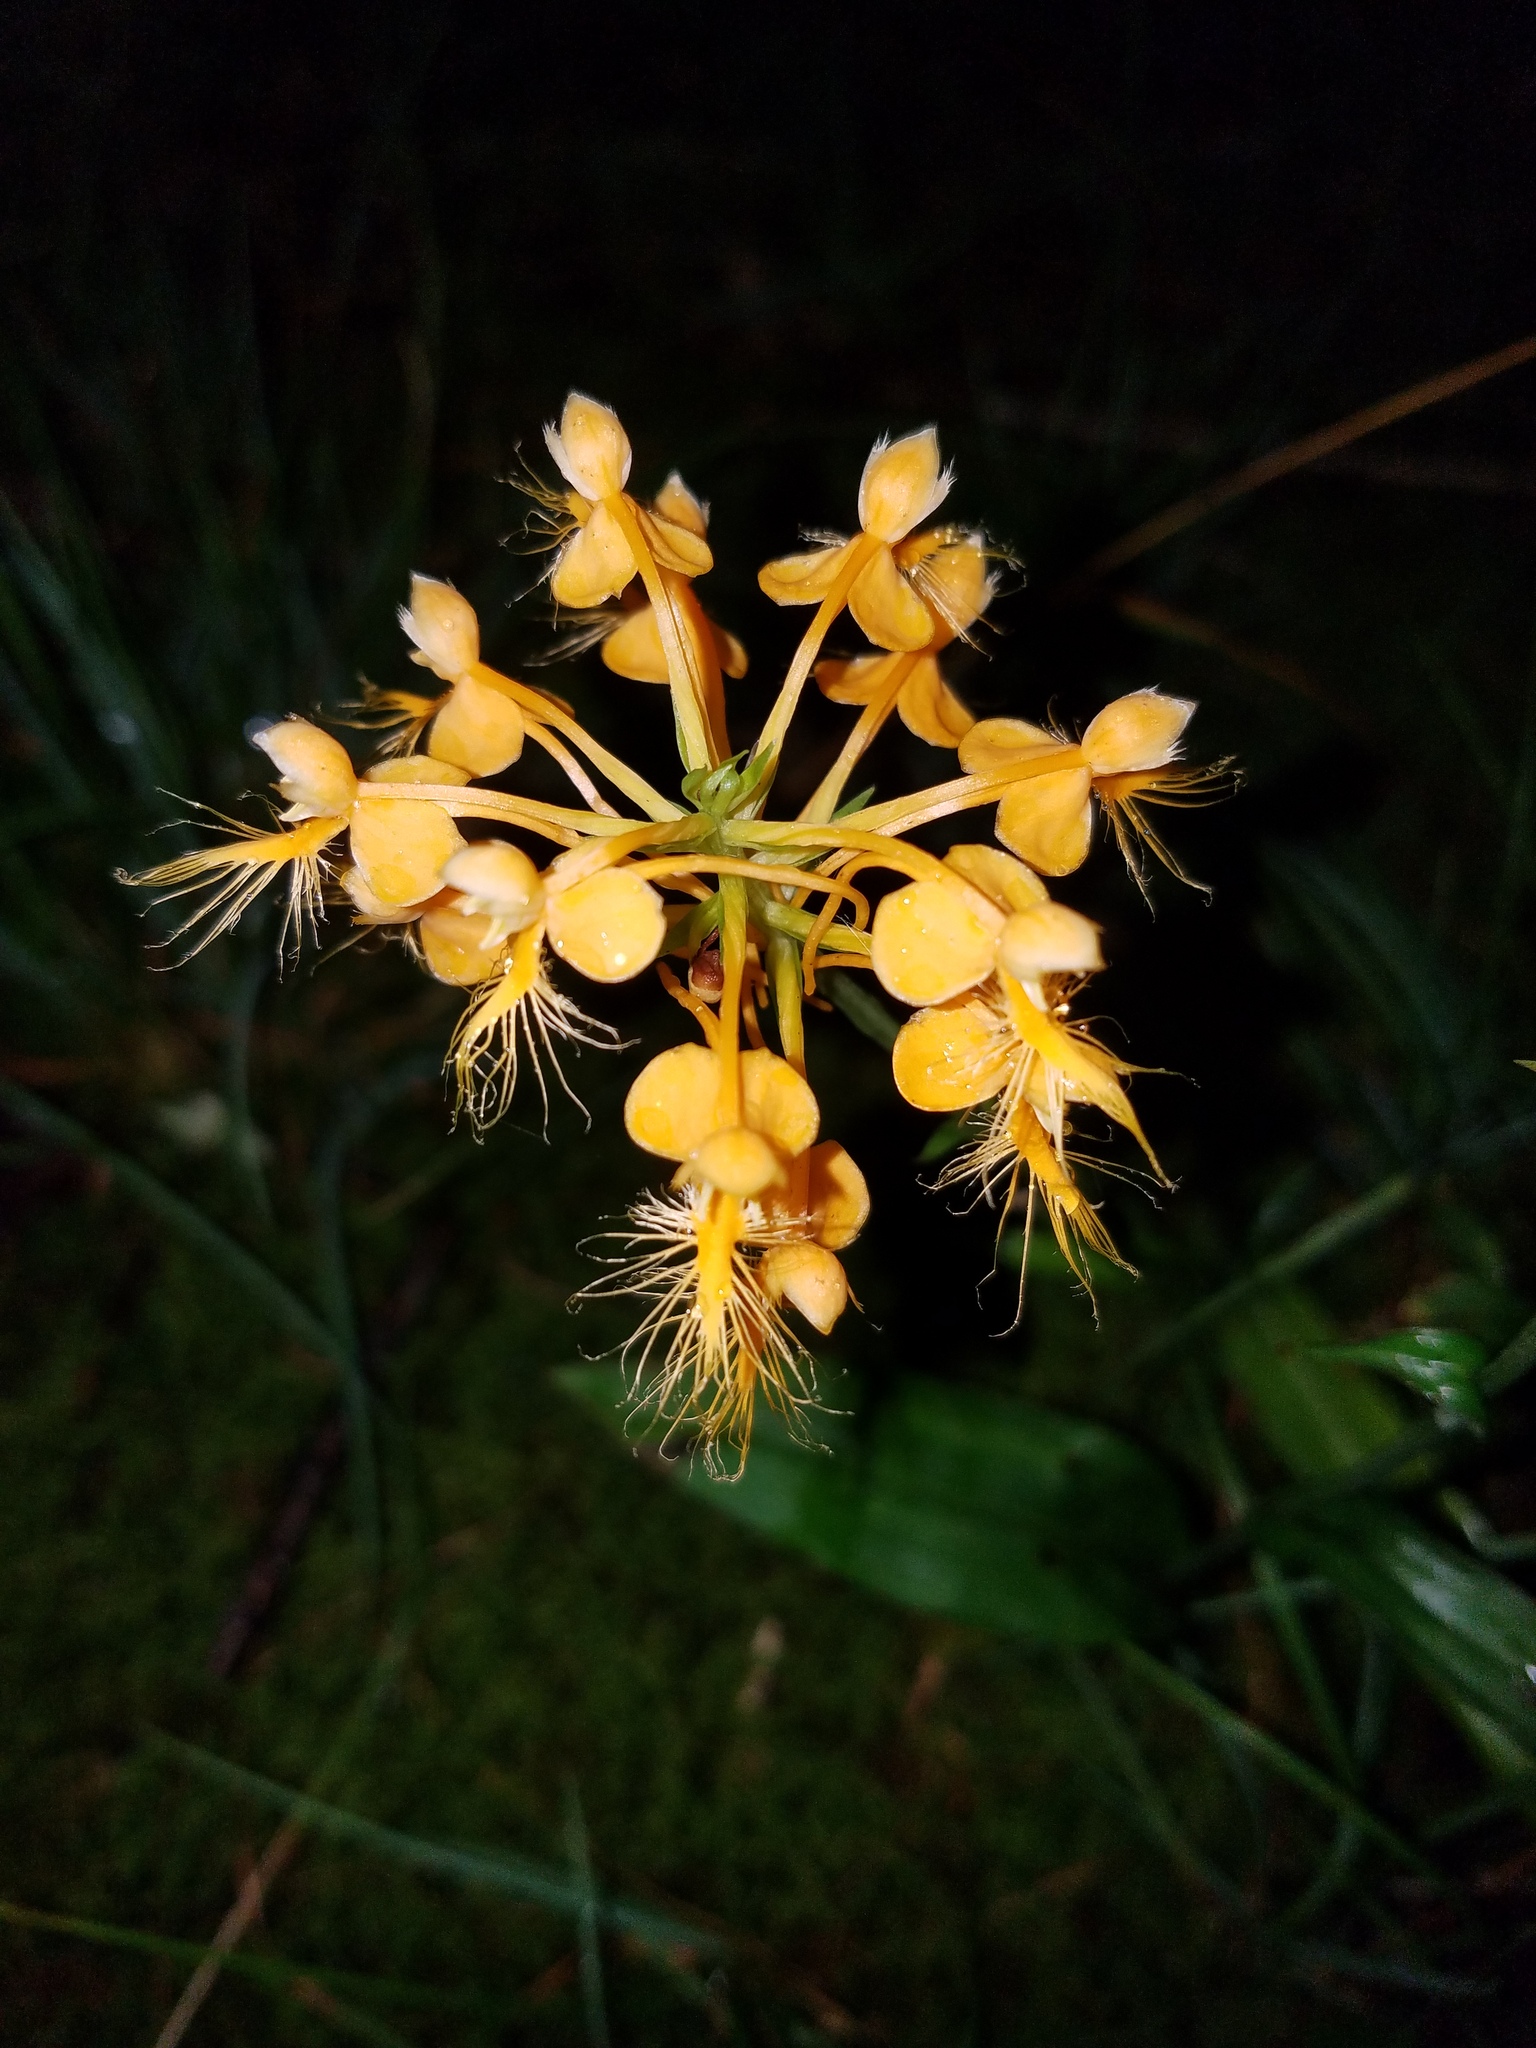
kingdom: Plantae
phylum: Tracheophyta
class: Liliopsida
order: Asparagales
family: Orchidaceae
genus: Platanthera
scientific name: Platanthera ciliaris
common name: Yellow fringed orchid
